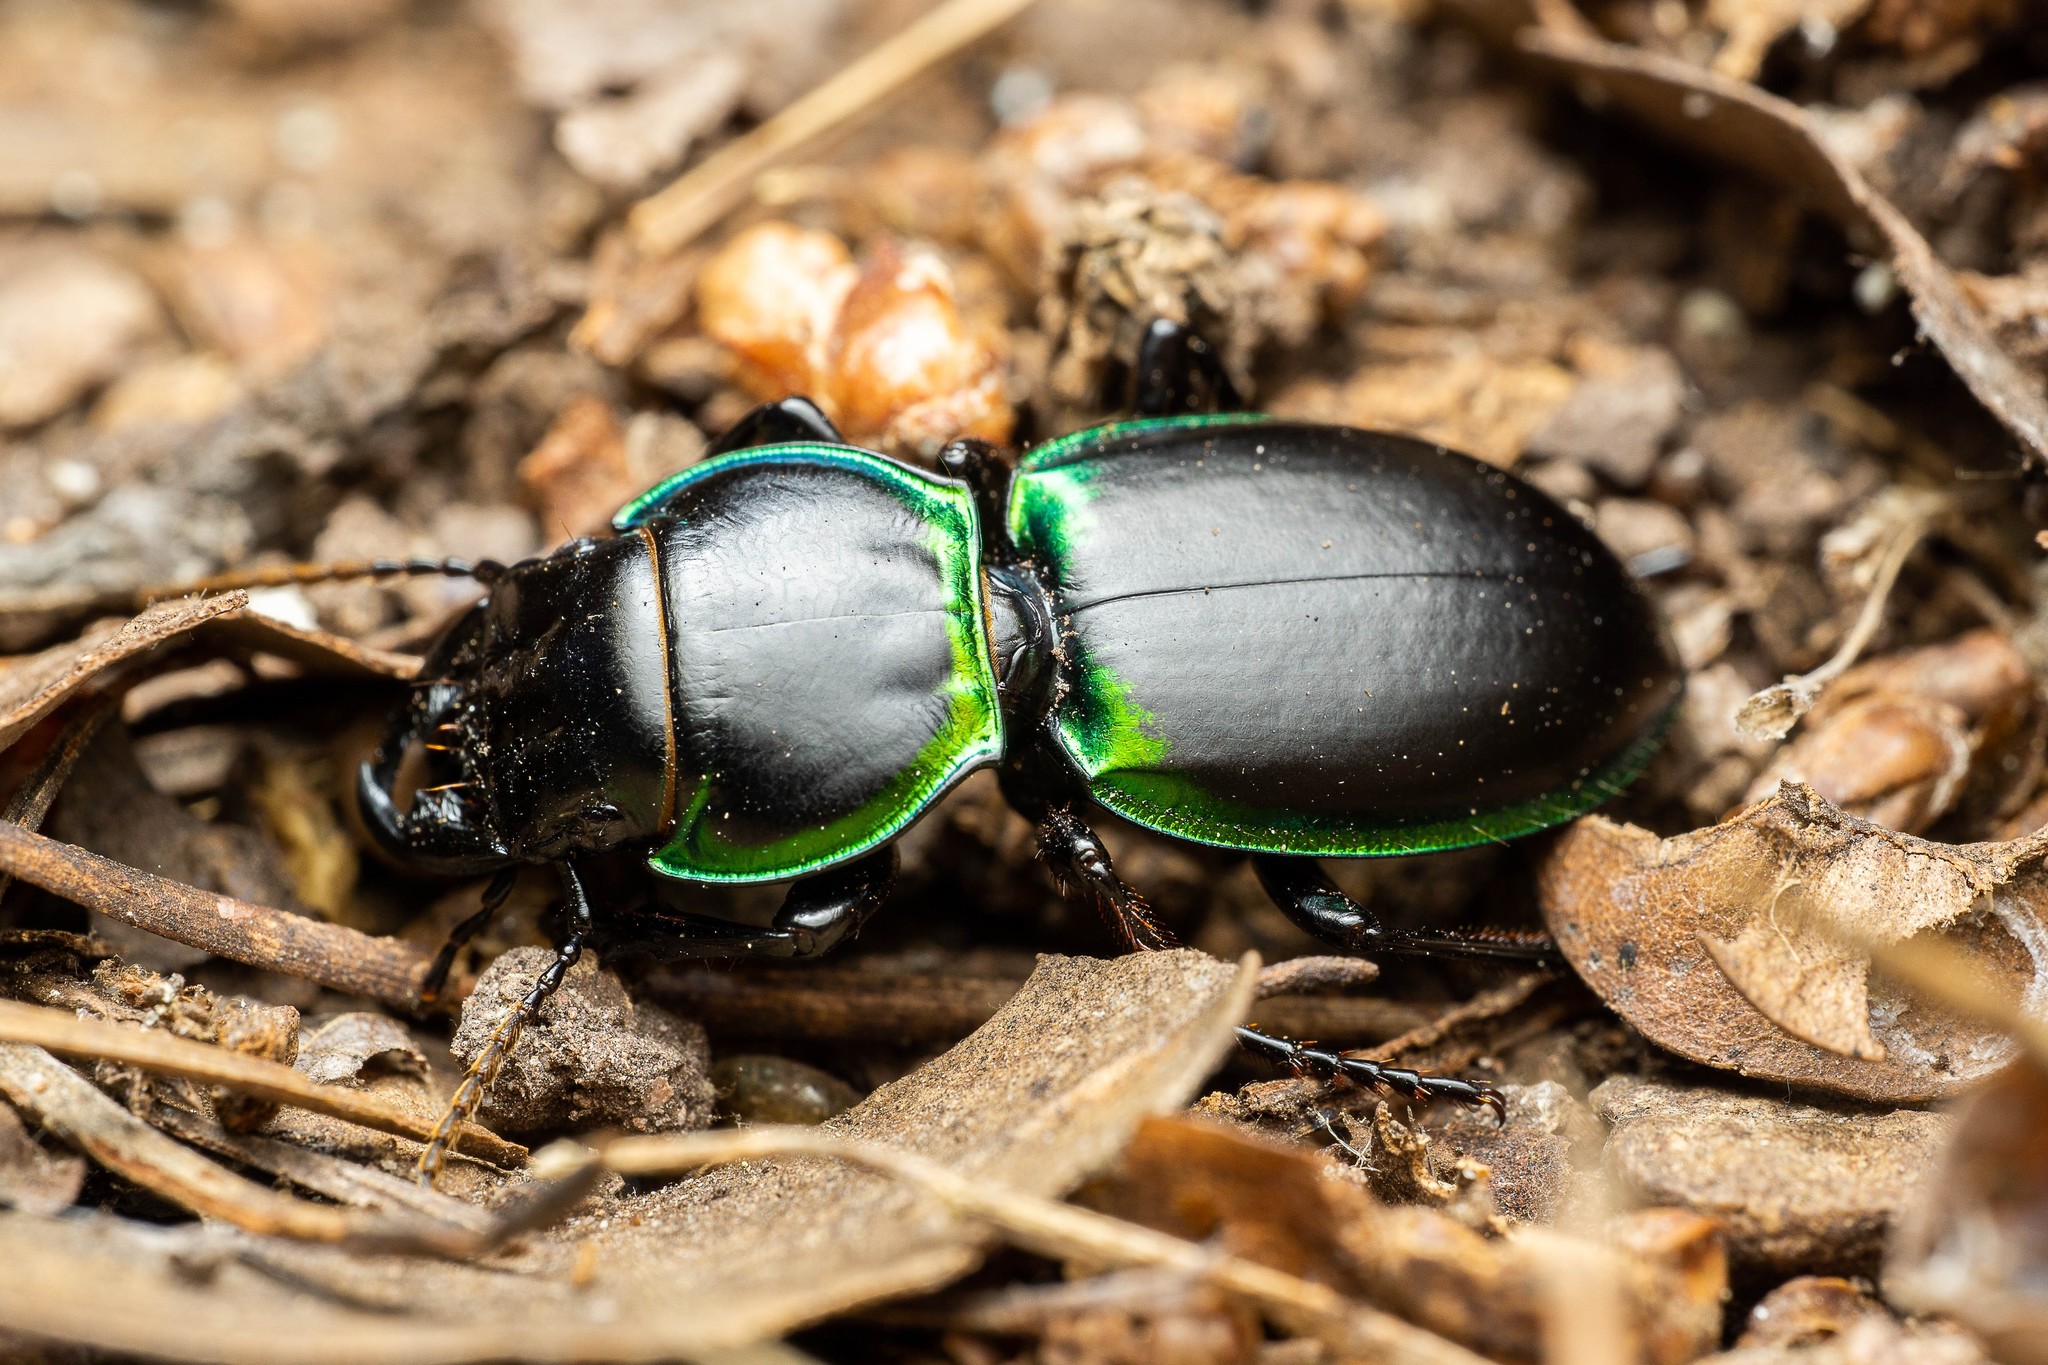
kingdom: Animalia
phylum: Arthropoda
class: Insecta
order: Coleoptera
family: Carabidae
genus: Pasimachus
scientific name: Pasimachus viridans
